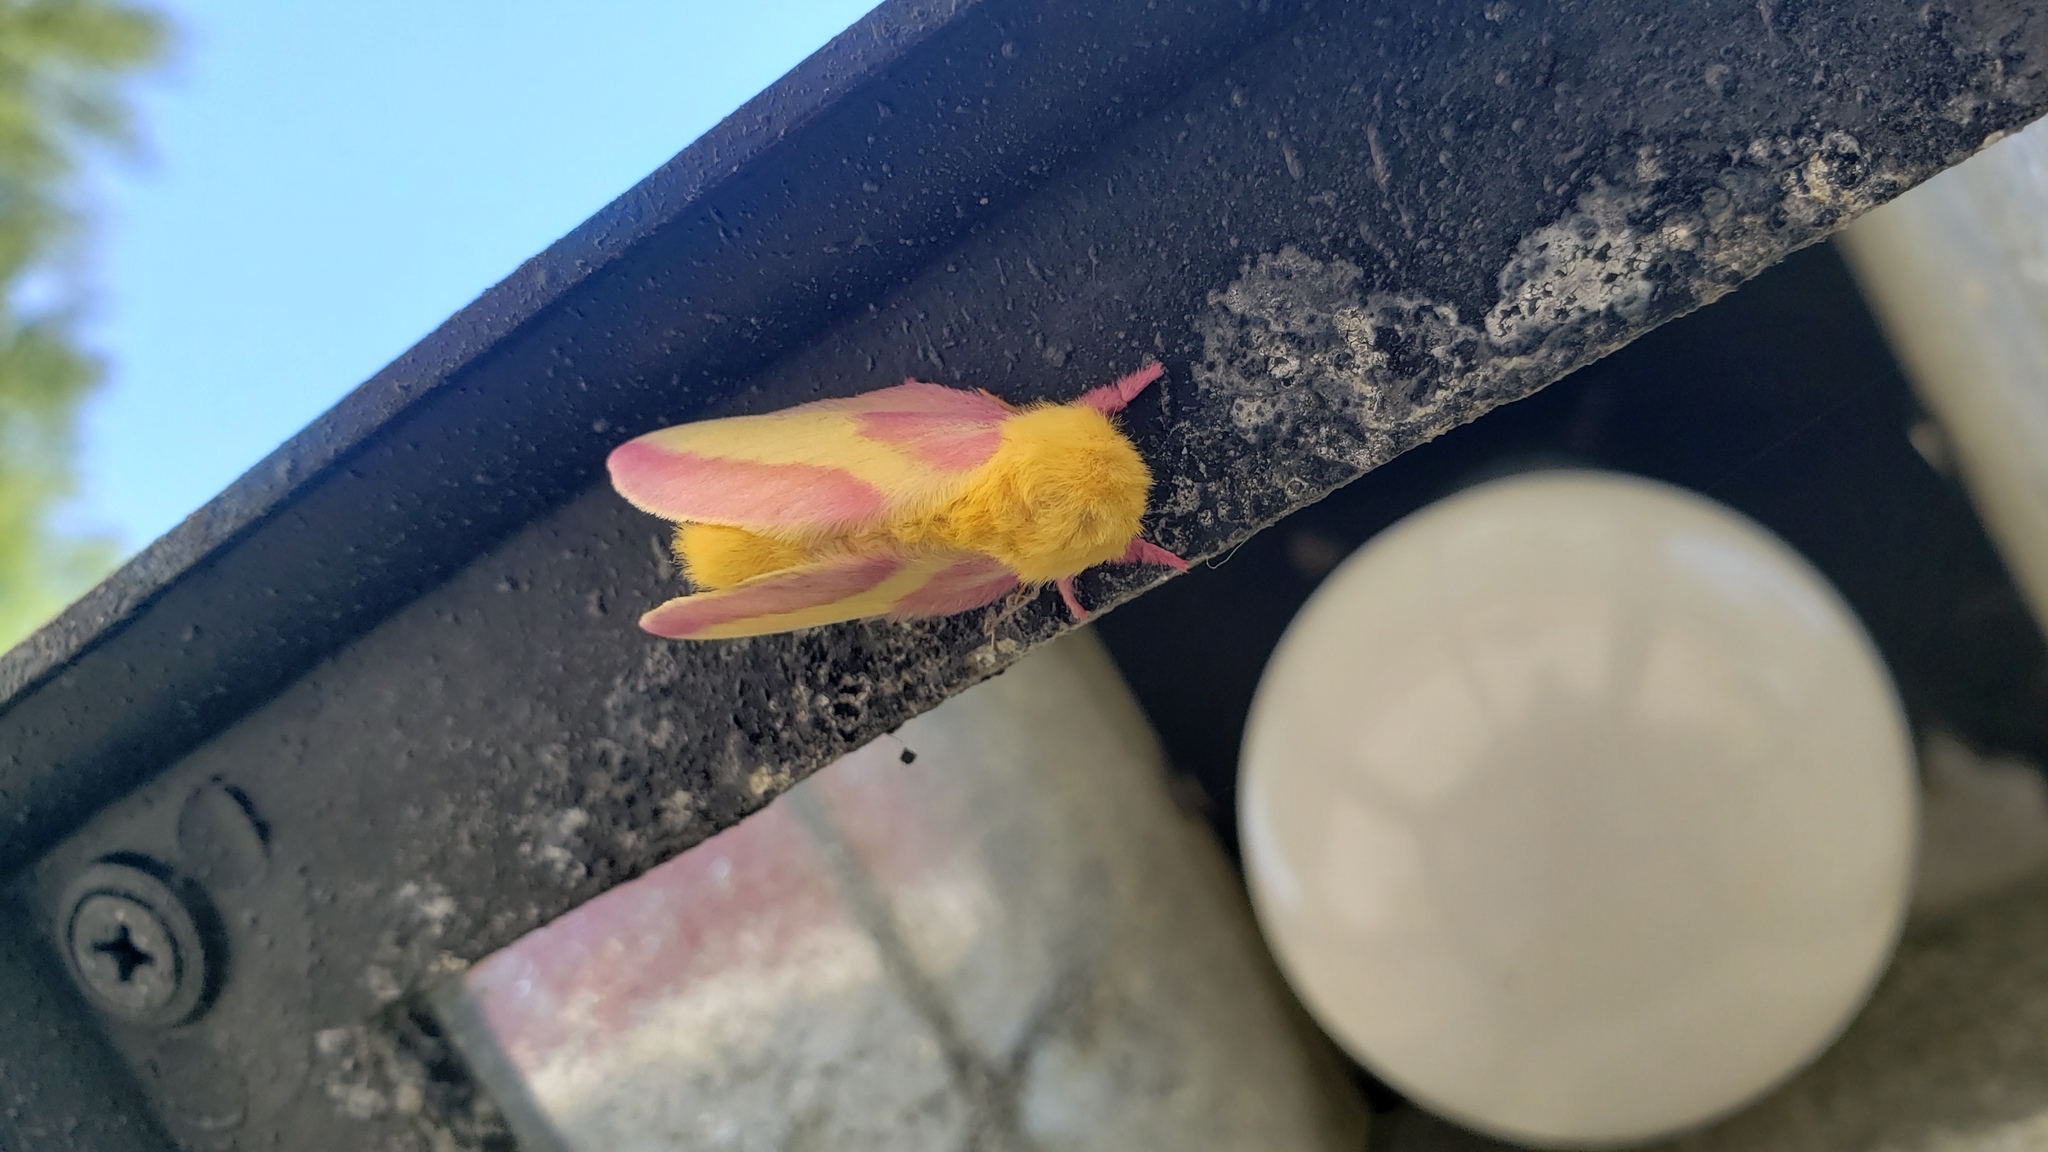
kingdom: Animalia
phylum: Arthropoda
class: Insecta
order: Lepidoptera
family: Saturniidae
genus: Dryocampa
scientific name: Dryocampa rubicunda
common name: Rosy maple moth
